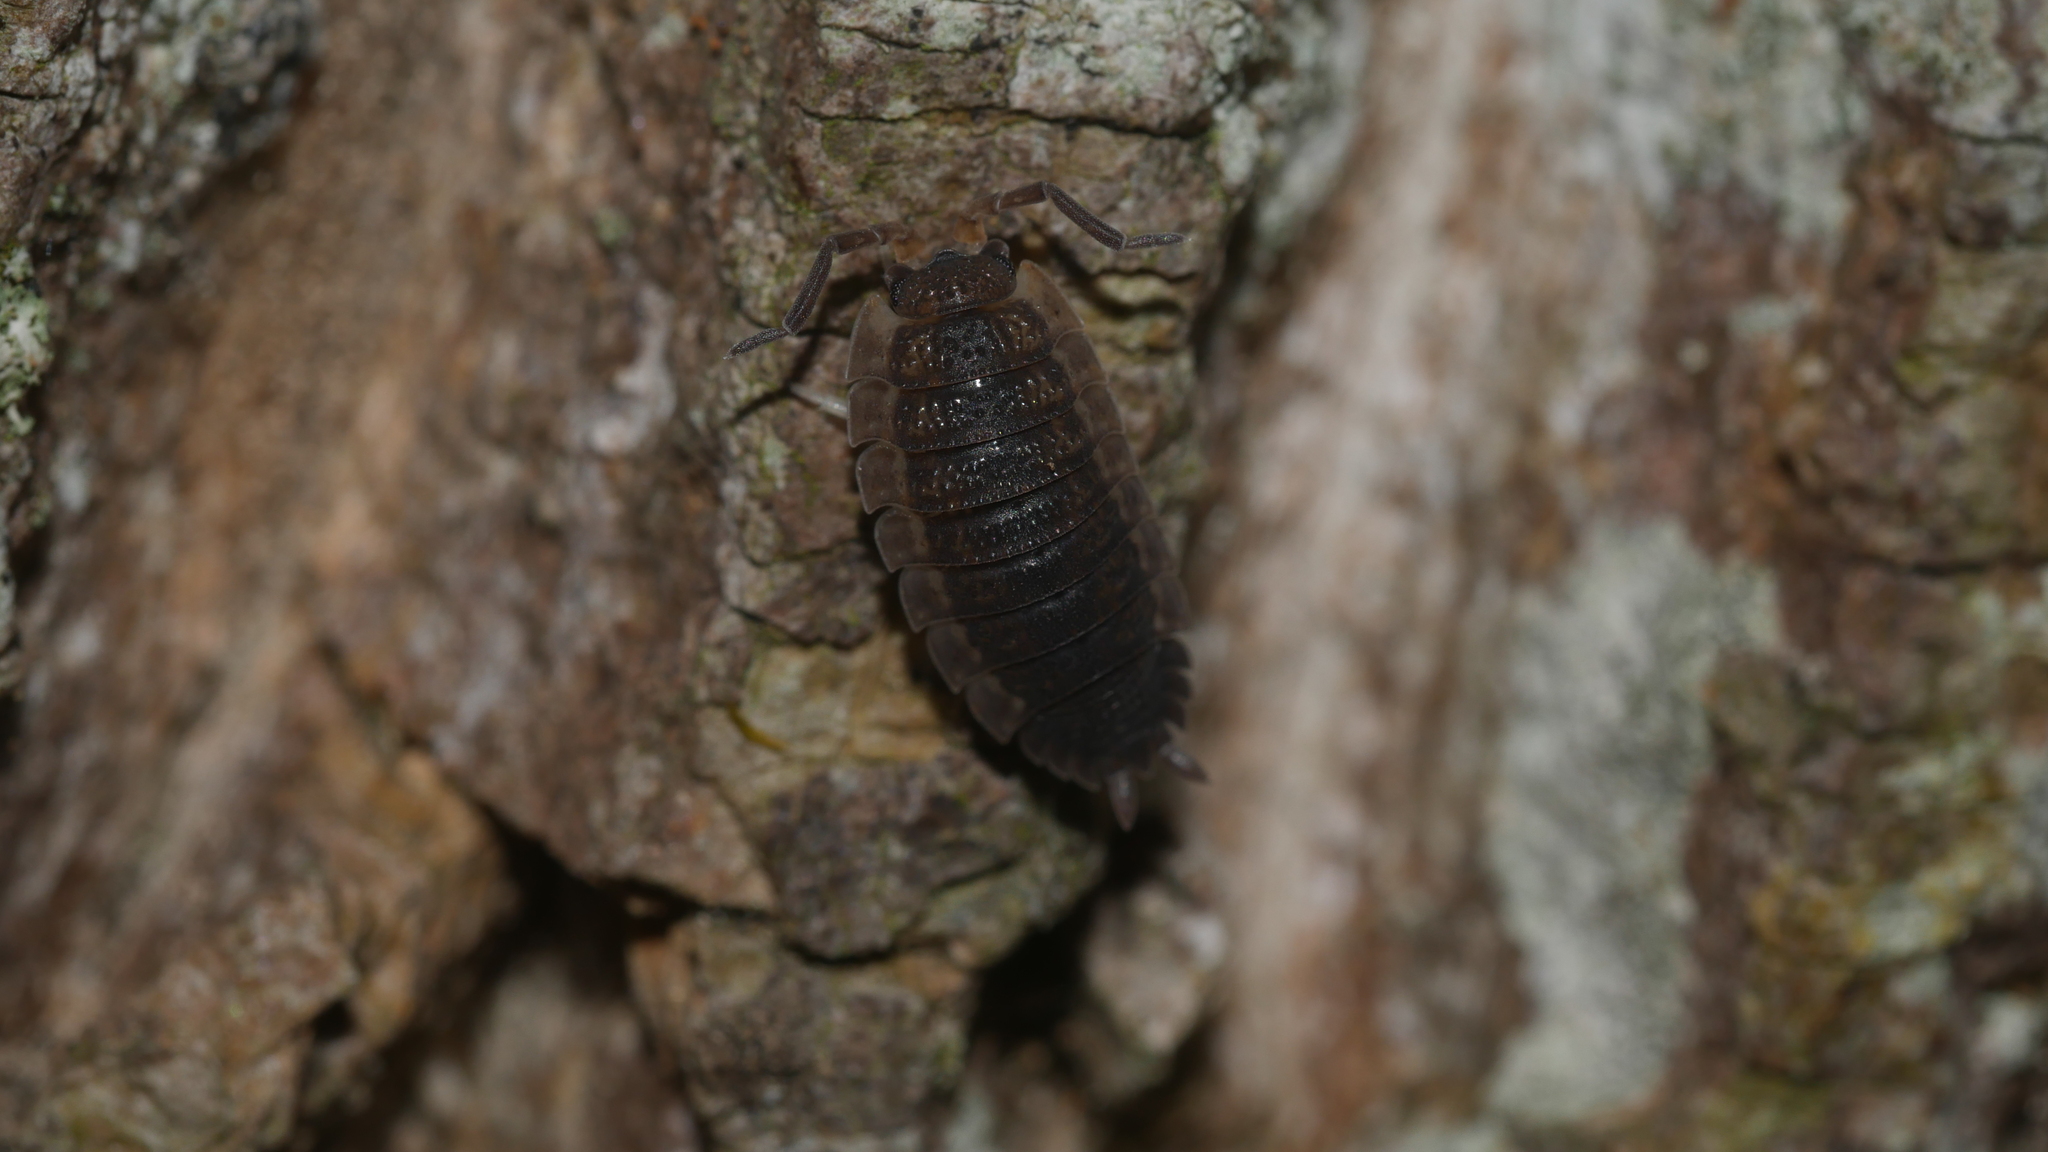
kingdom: Animalia
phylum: Arthropoda
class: Malacostraca
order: Isopoda
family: Porcellionidae
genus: Porcellio
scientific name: Porcellio scaber
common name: Common rough woodlouse
